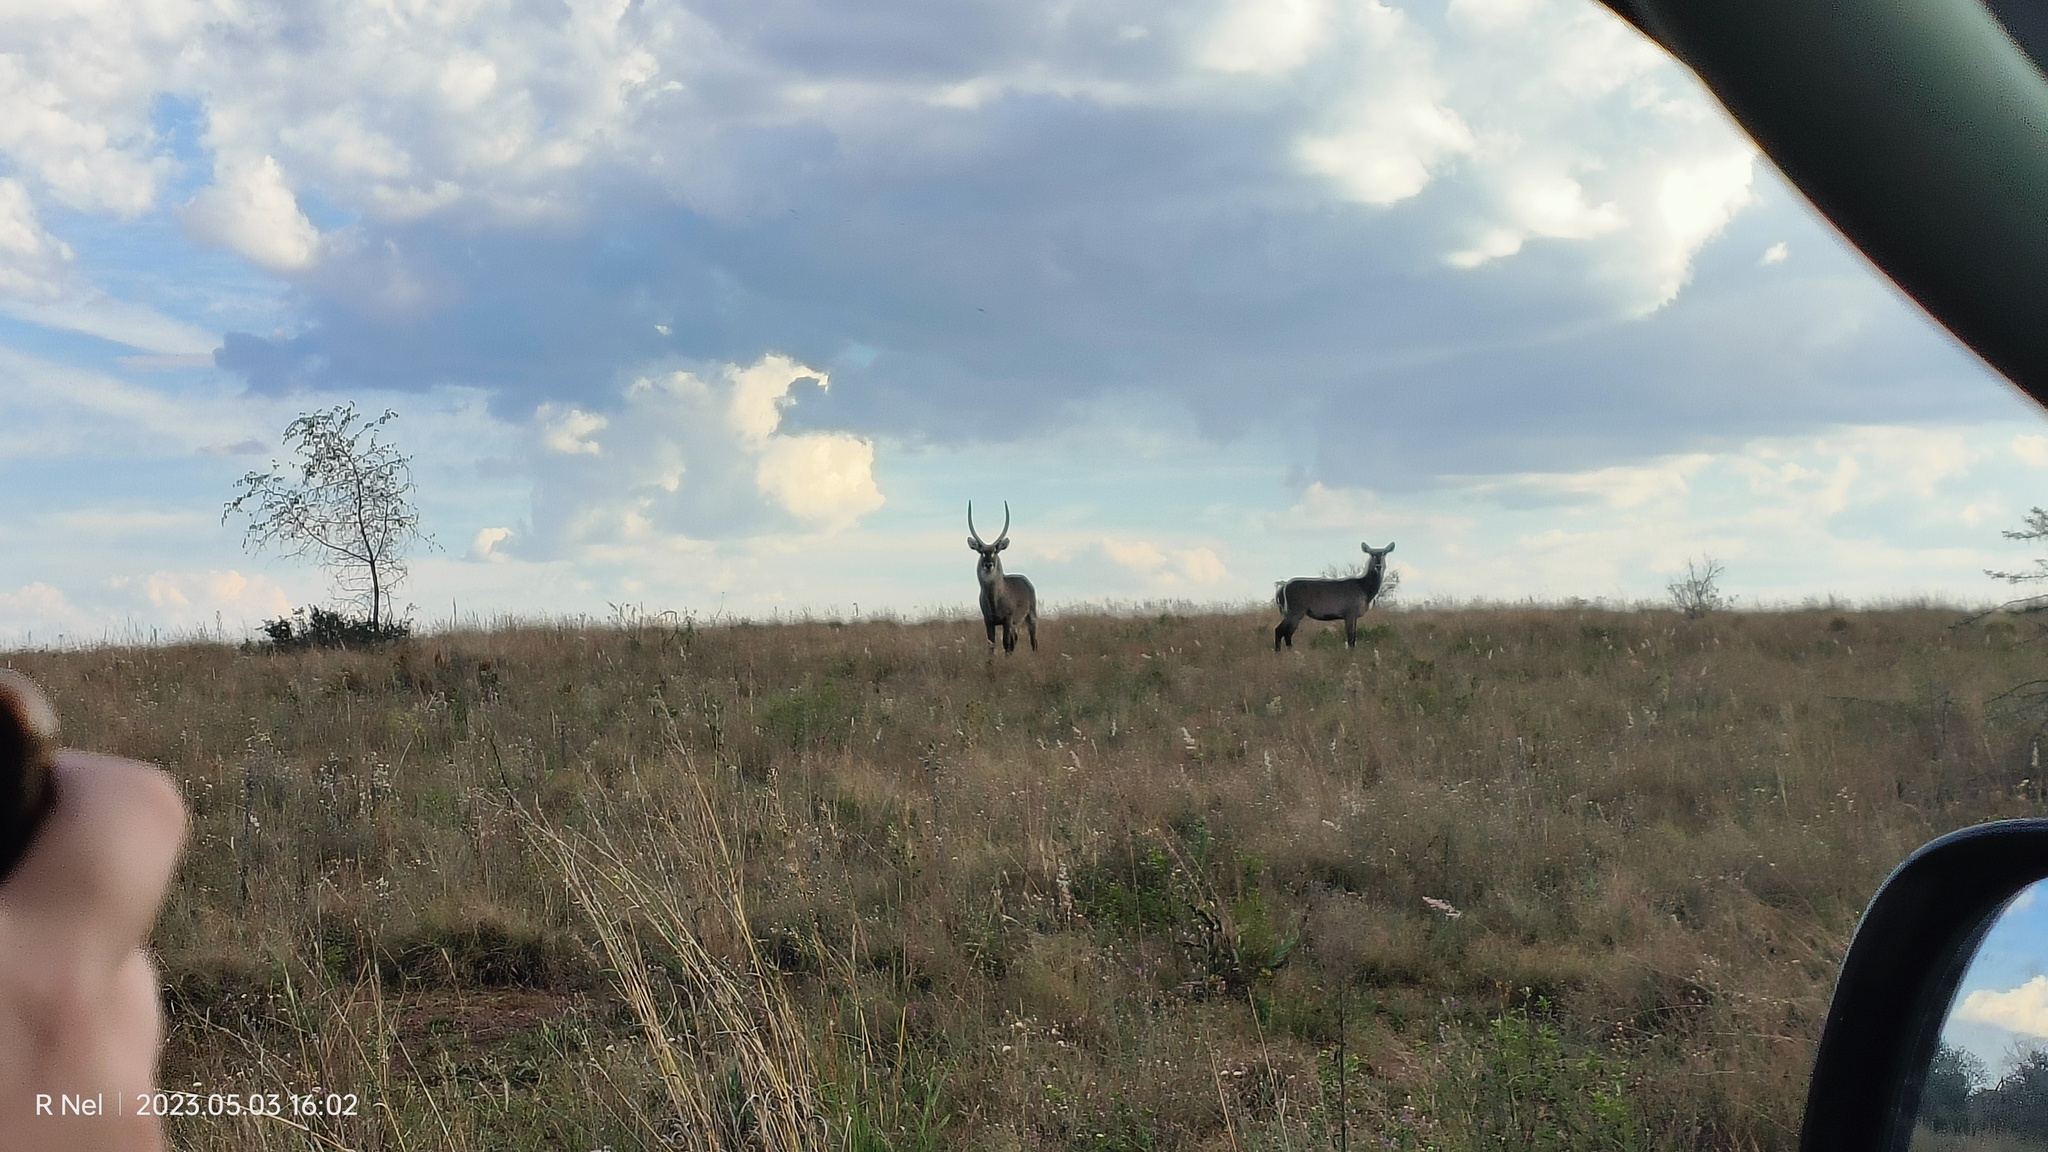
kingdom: Animalia
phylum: Chordata
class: Mammalia
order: Artiodactyla
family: Bovidae
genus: Kobus
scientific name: Kobus ellipsiprymnus
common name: Waterbuck
